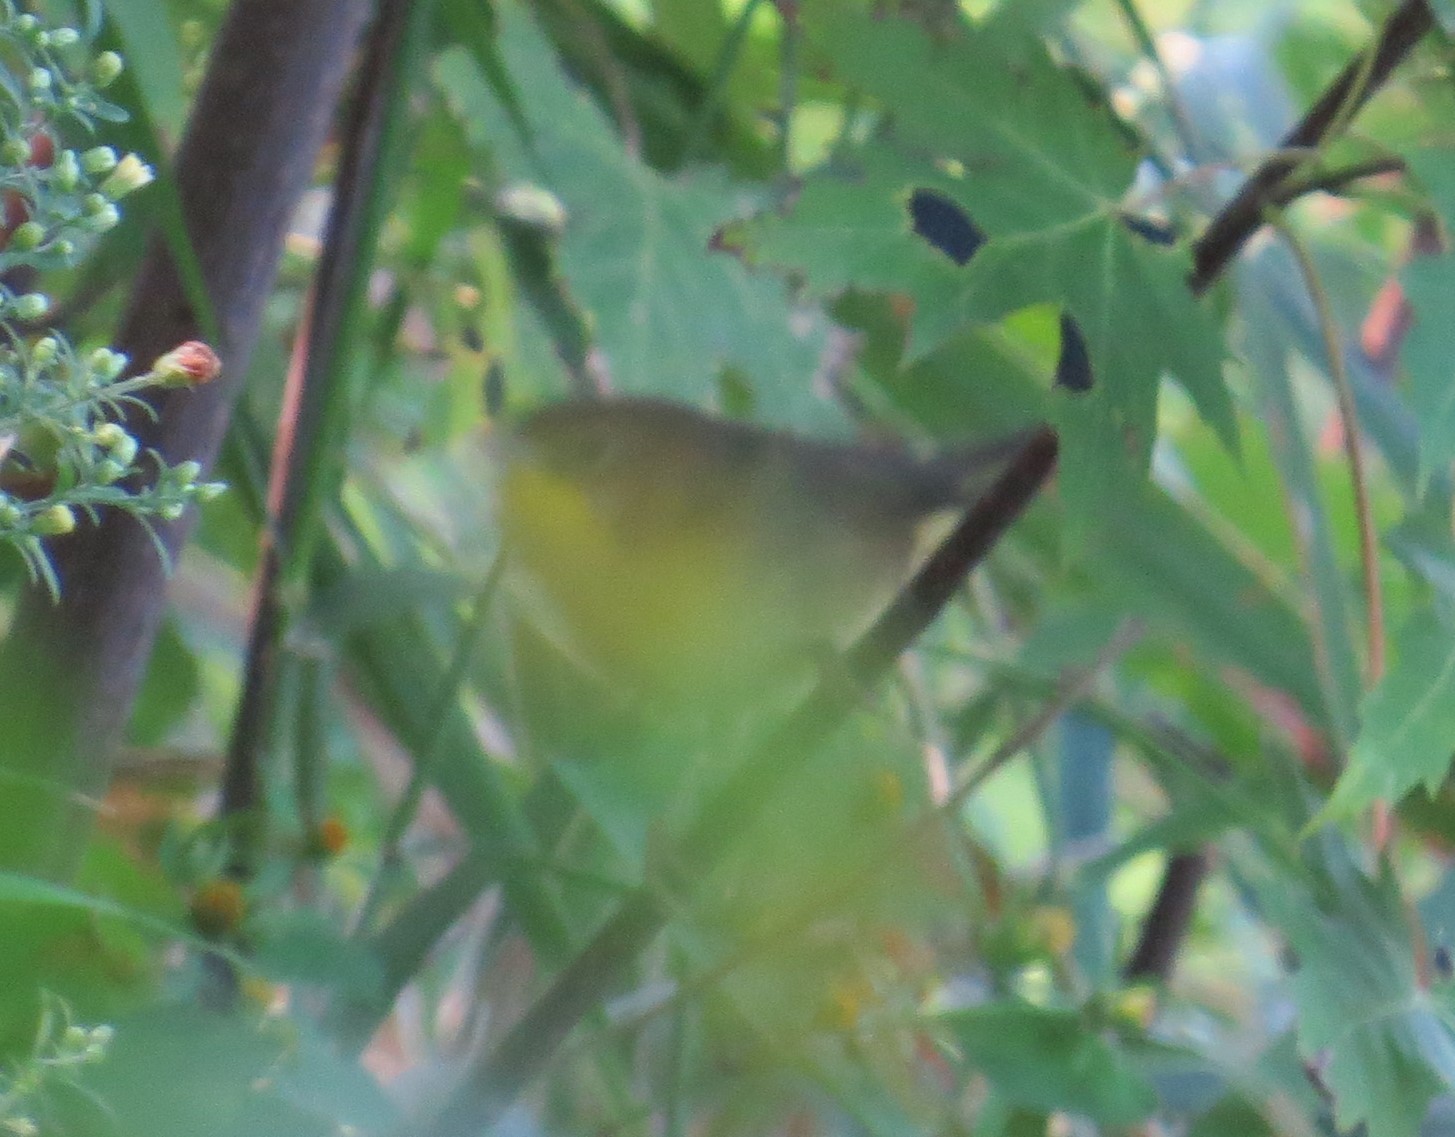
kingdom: Animalia
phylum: Chordata
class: Aves
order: Passeriformes
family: Parulidae
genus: Geothlypis
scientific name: Geothlypis trichas
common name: Common yellowthroat
